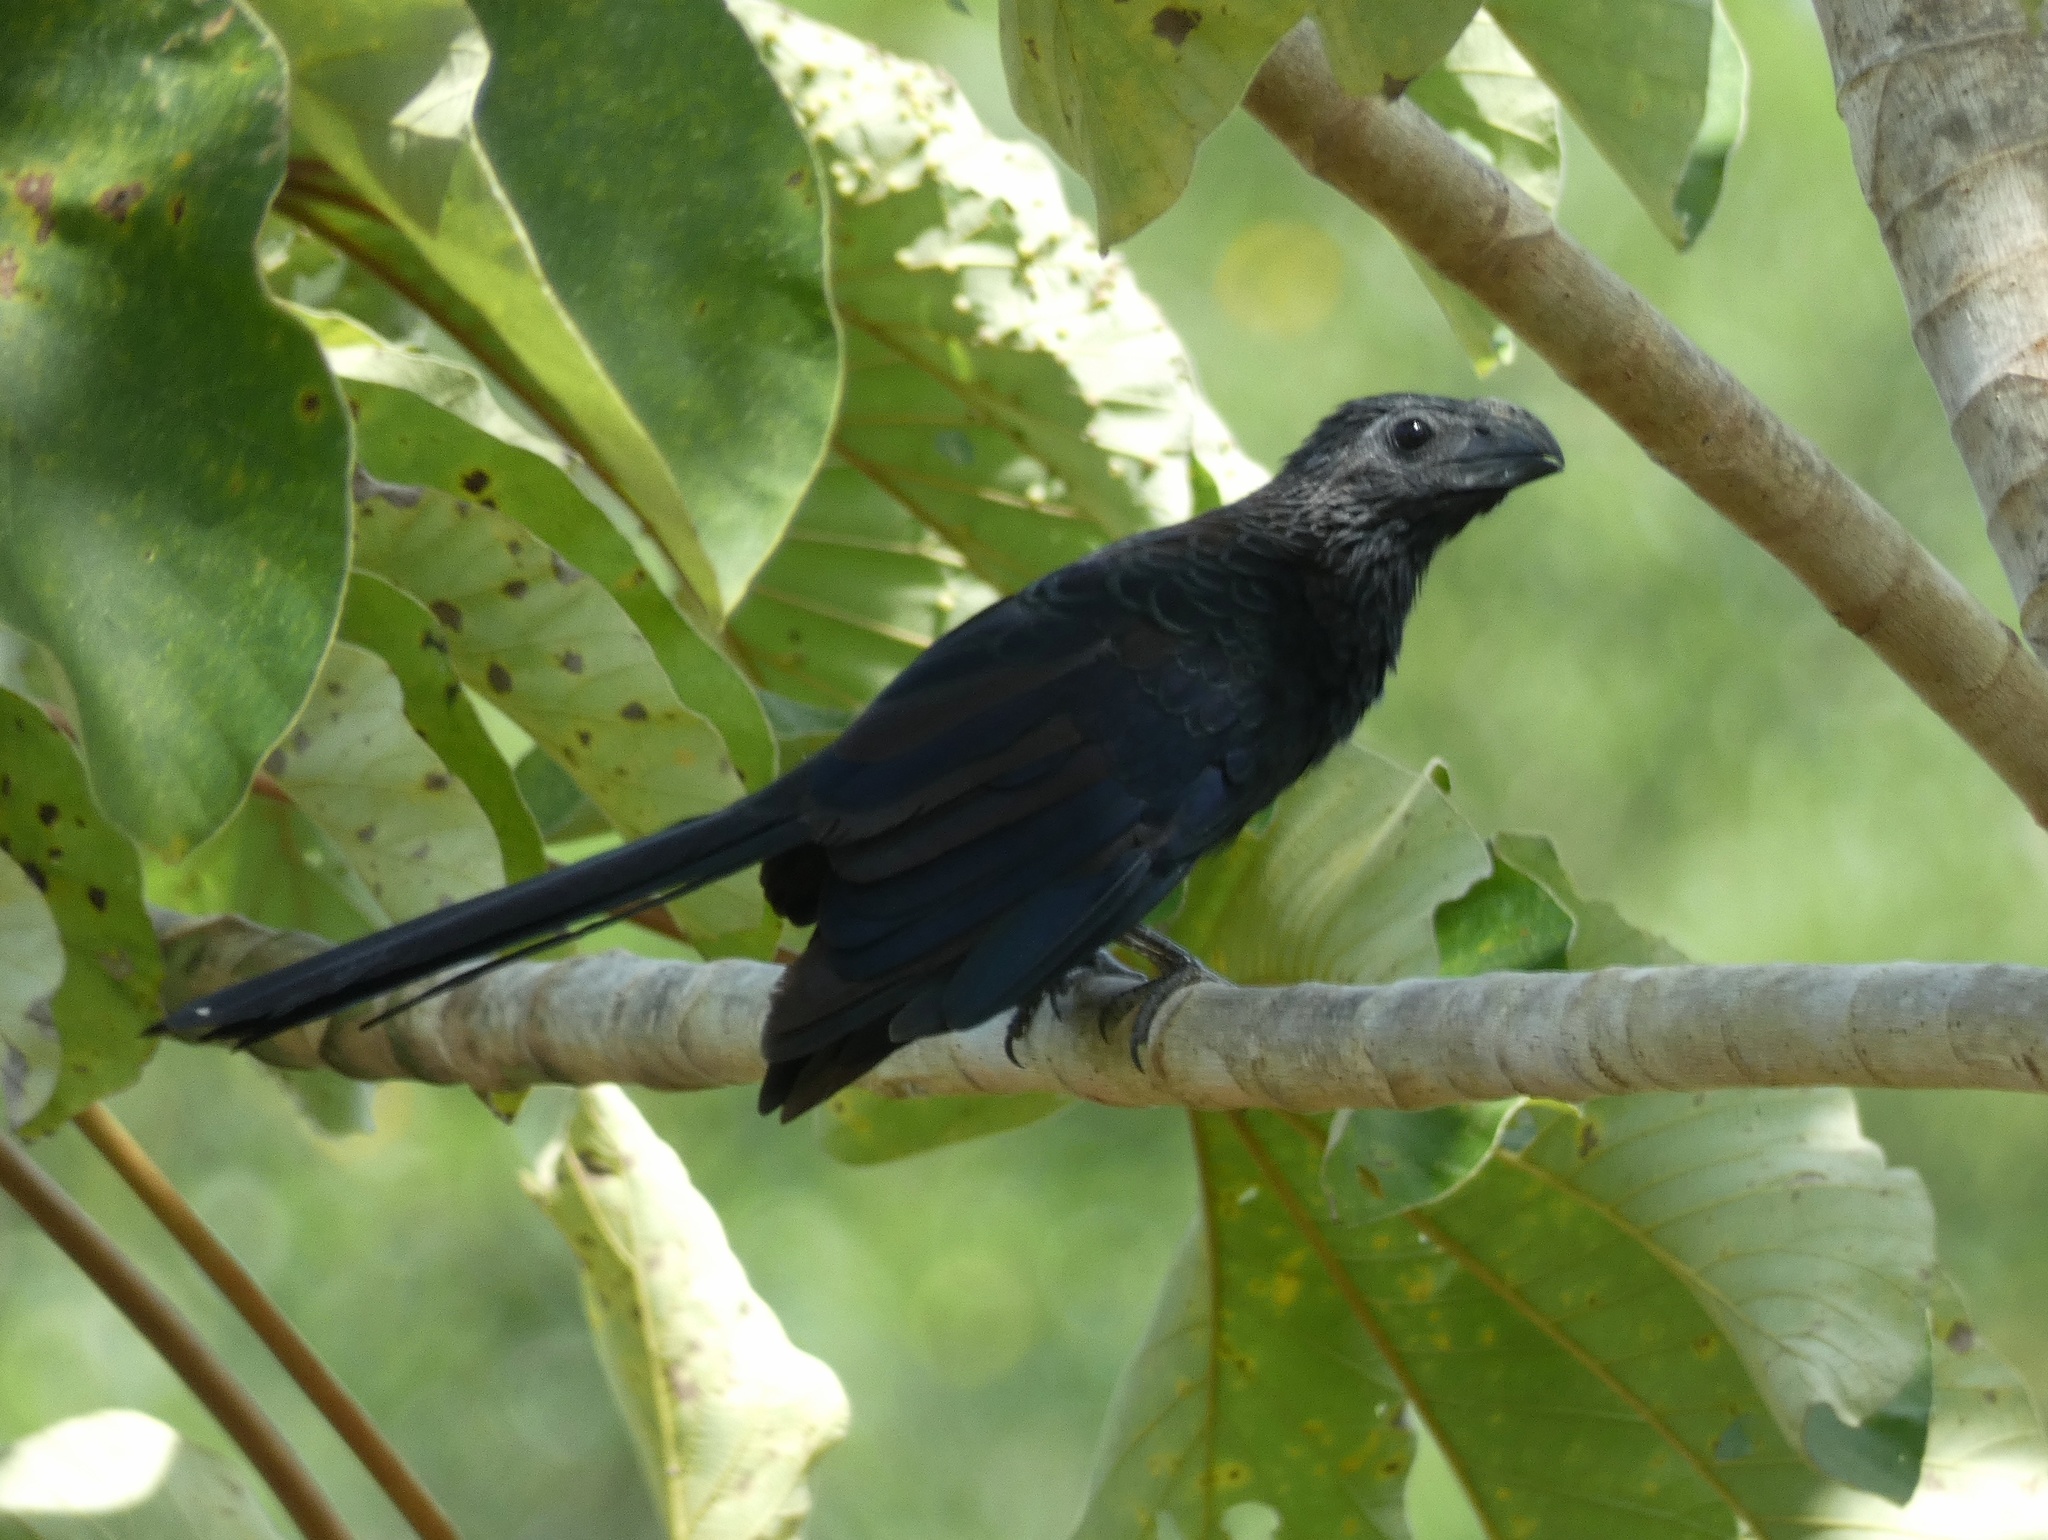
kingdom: Animalia
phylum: Chordata
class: Aves
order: Cuculiformes
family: Cuculidae
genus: Crotophaga
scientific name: Crotophaga ani
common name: Smooth-billed ani
